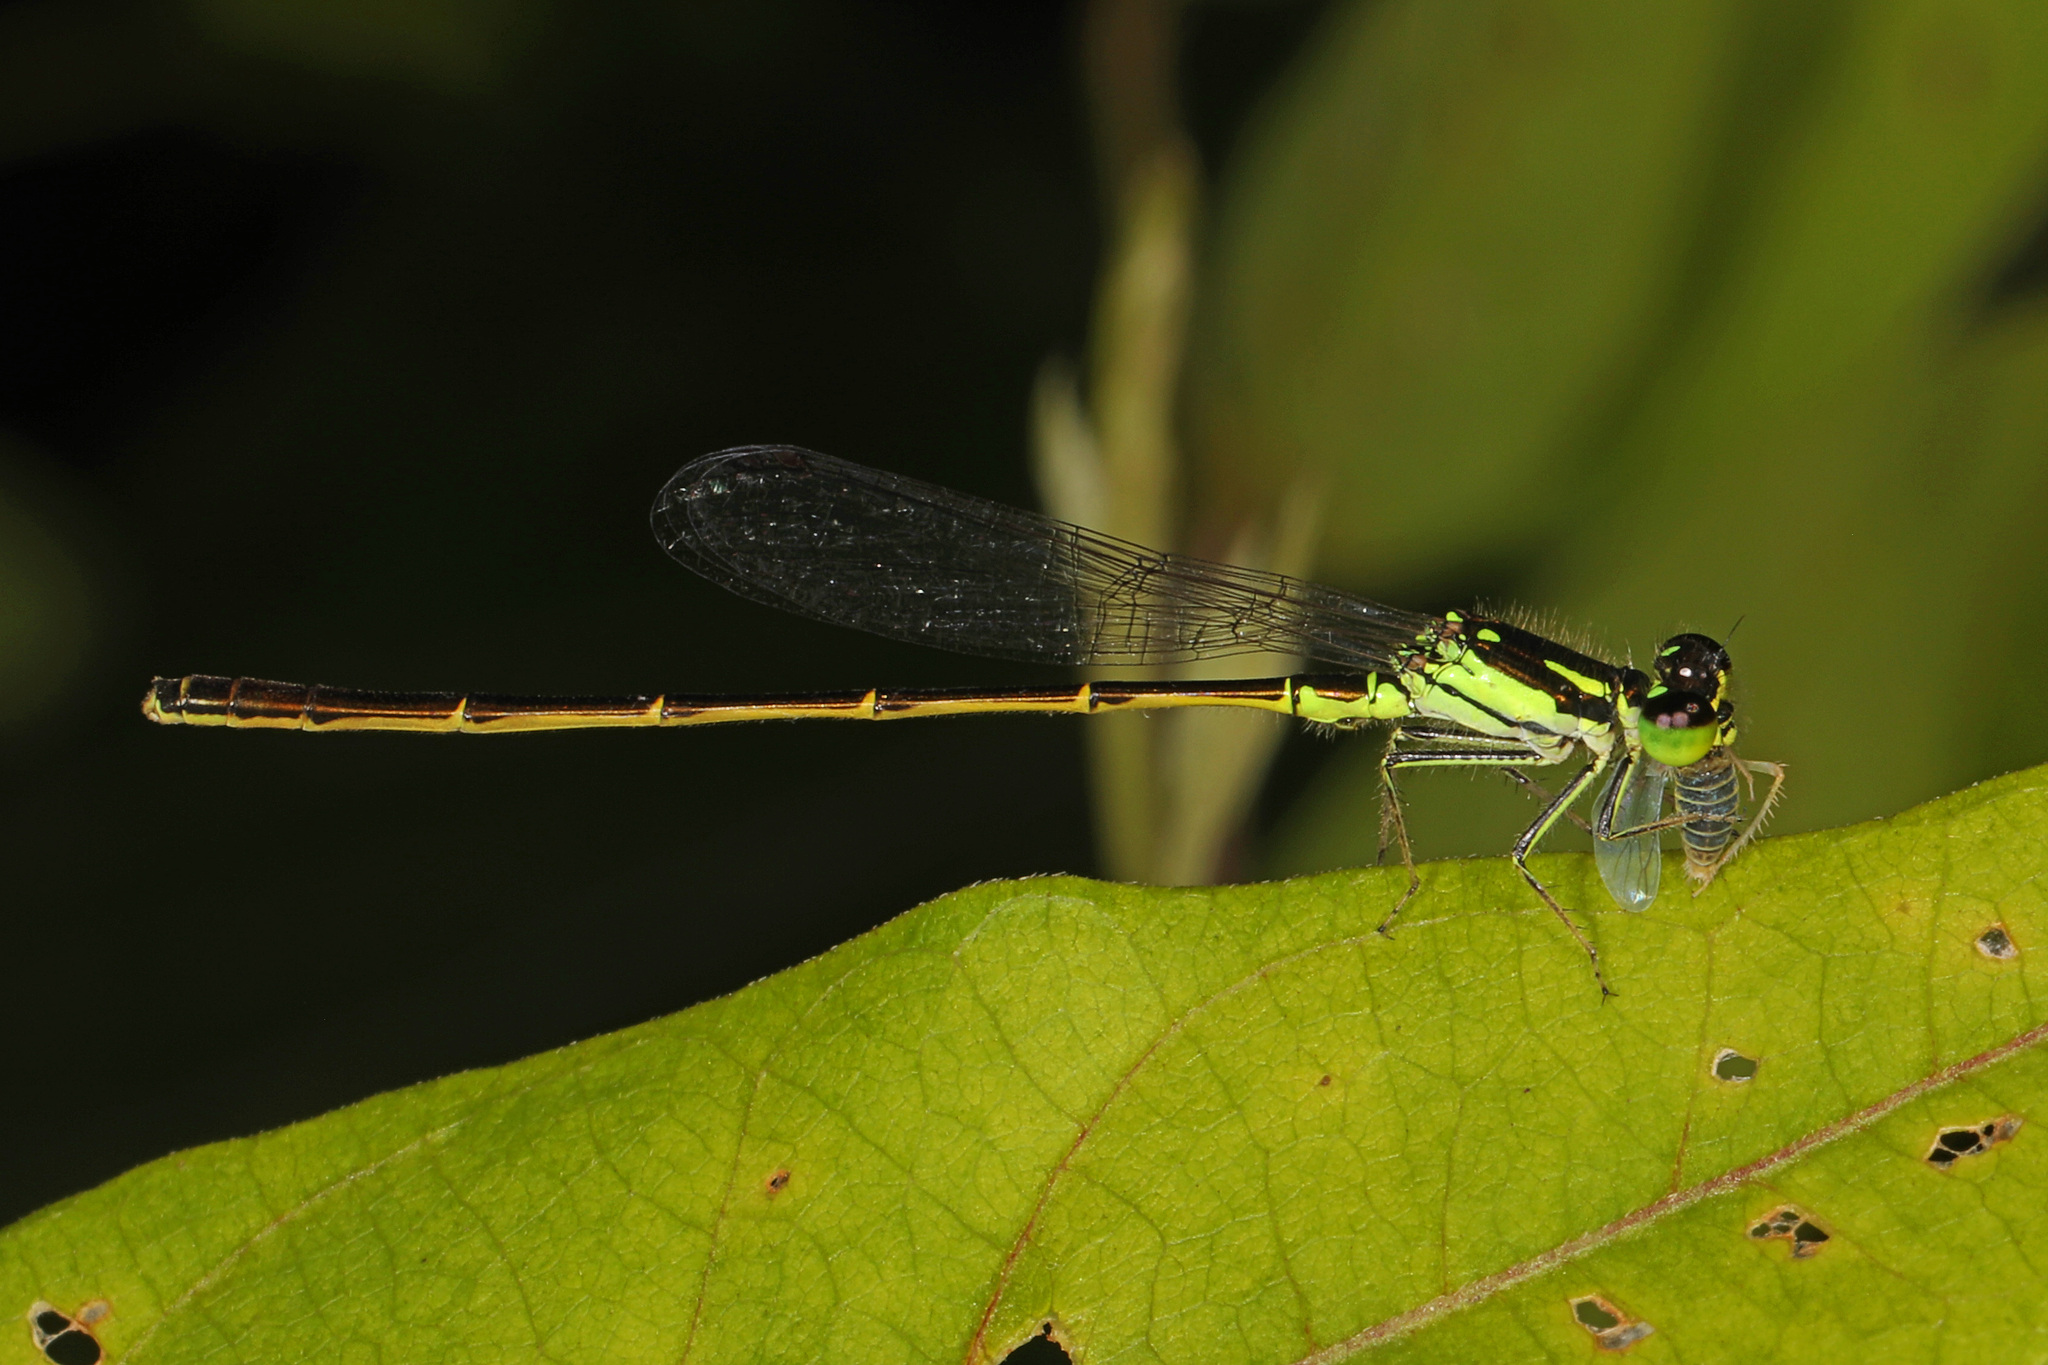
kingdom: Animalia
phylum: Arthropoda
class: Insecta
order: Odonata
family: Coenagrionidae
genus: Ischnura
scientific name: Ischnura posita
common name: Fragile forktail
